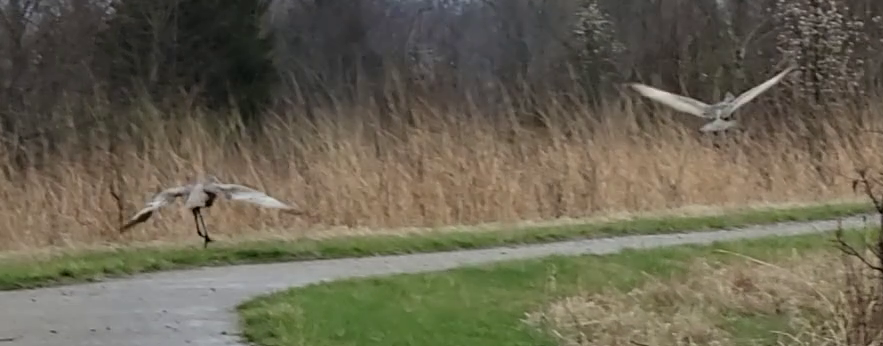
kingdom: Animalia
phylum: Chordata
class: Aves
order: Gruiformes
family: Gruidae
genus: Grus
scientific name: Grus canadensis
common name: Sandhill crane
